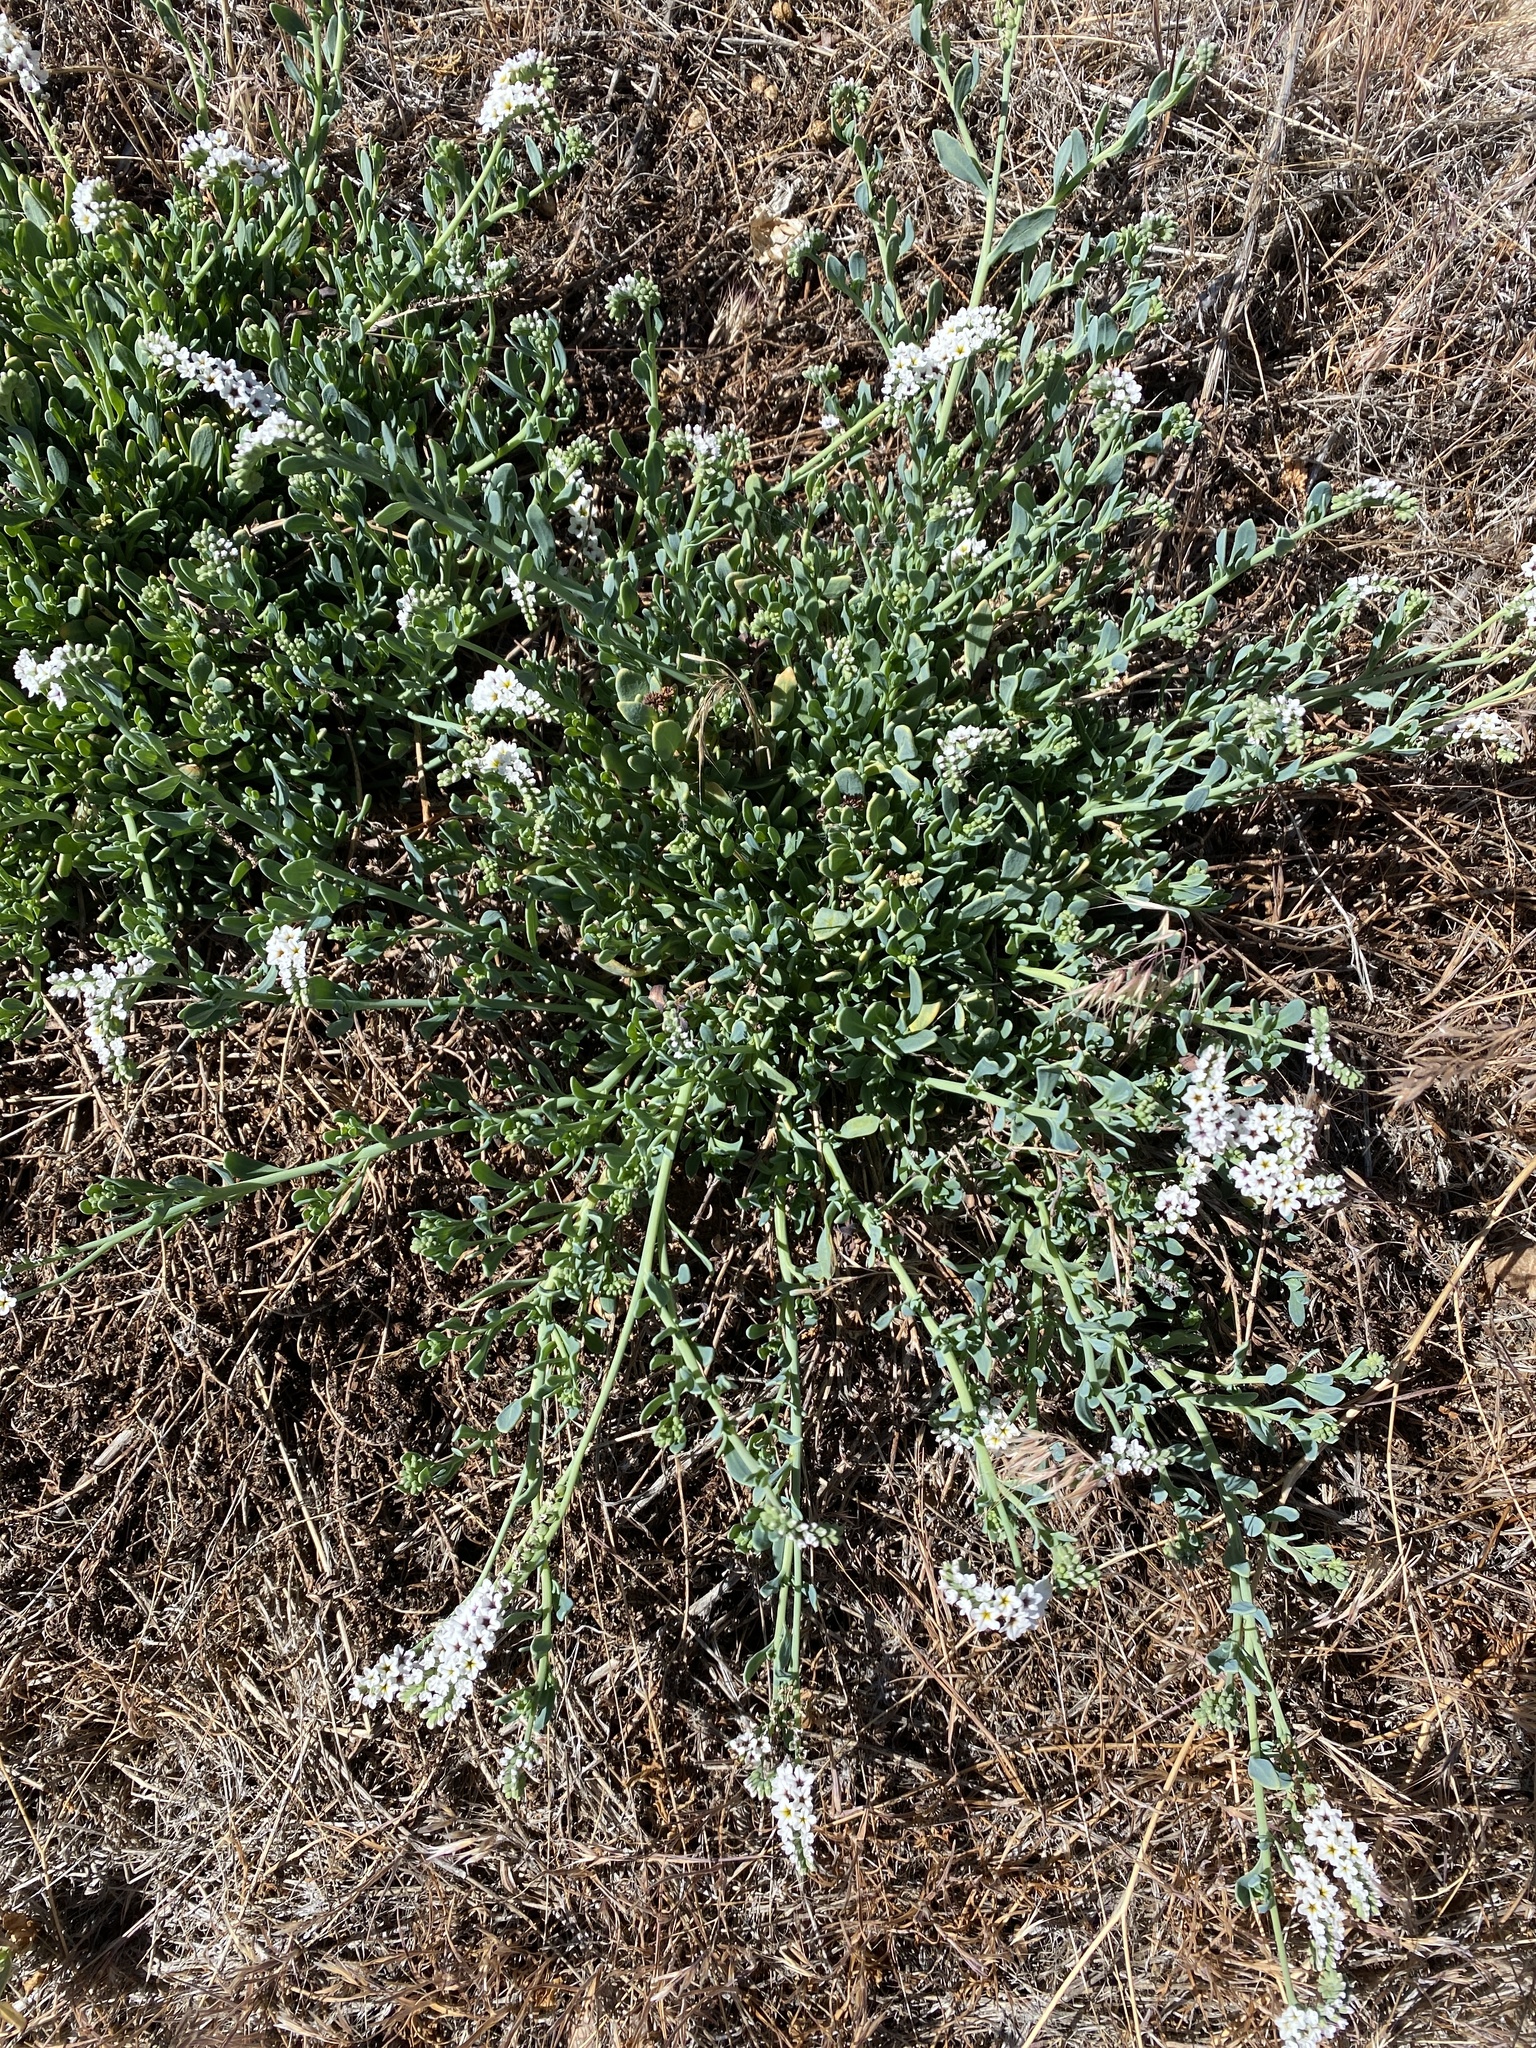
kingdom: Plantae
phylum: Tracheophyta
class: Magnoliopsida
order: Boraginales
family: Heliotropiaceae
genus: Heliotropium
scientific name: Heliotropium curassavicum
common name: Seaside heliotrope
